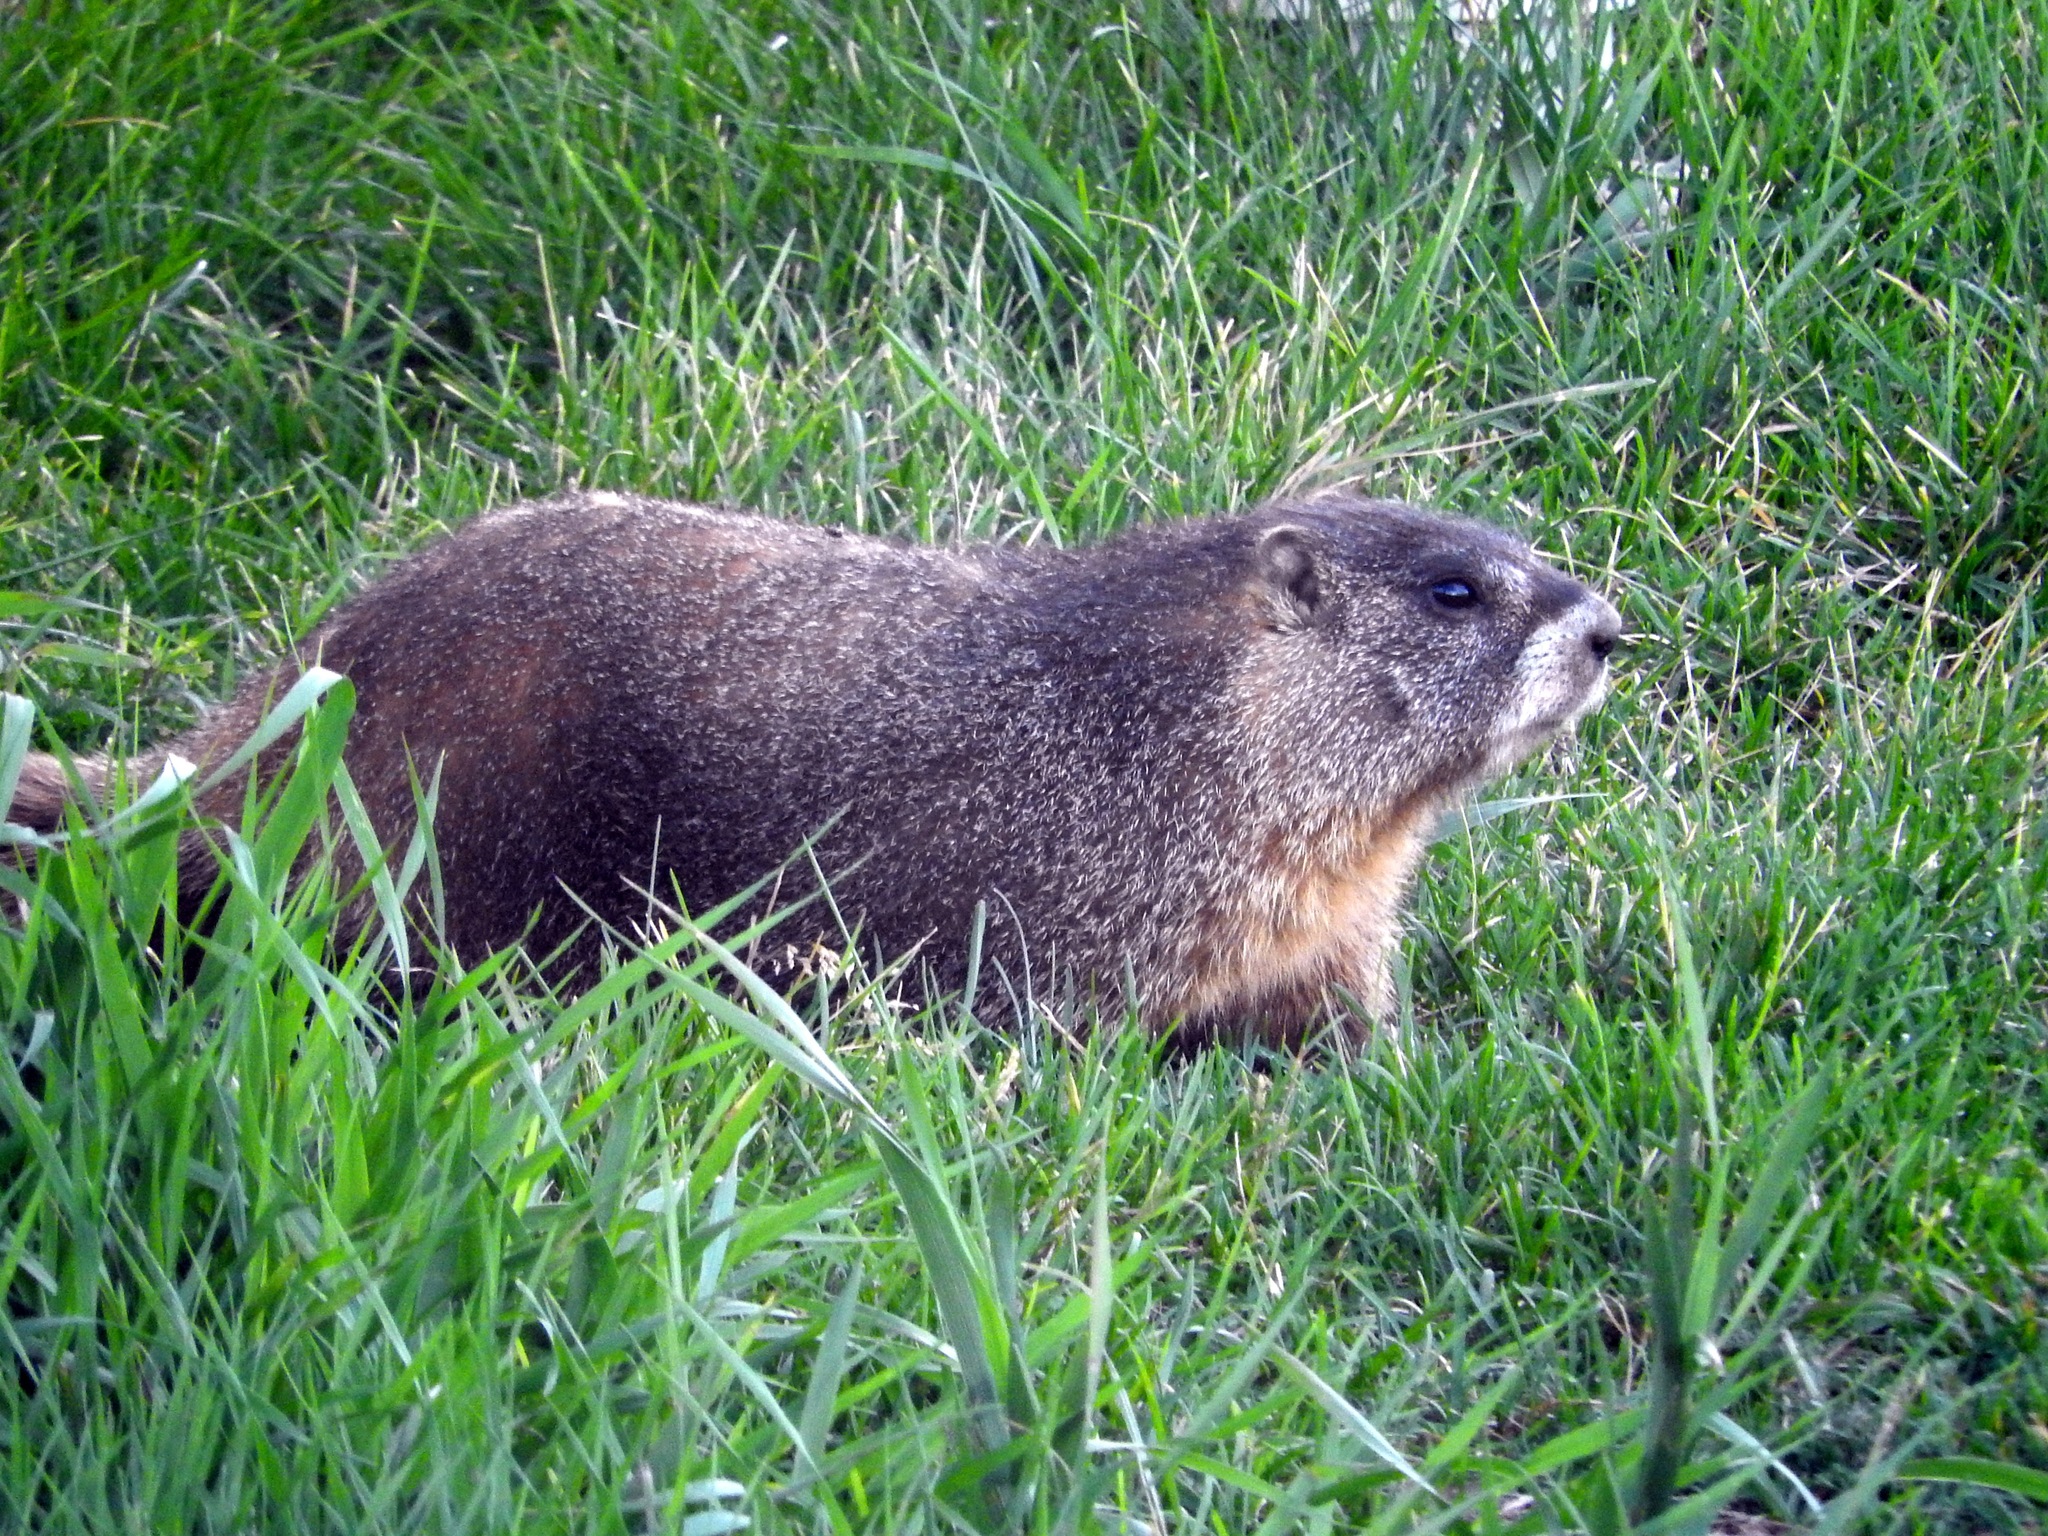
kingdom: Animalia
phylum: Chordata
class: Mammalia
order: Rodentia
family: Sciuridae
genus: Marmota
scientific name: Marmota flaviventris
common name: Yellow-bellied marmot
